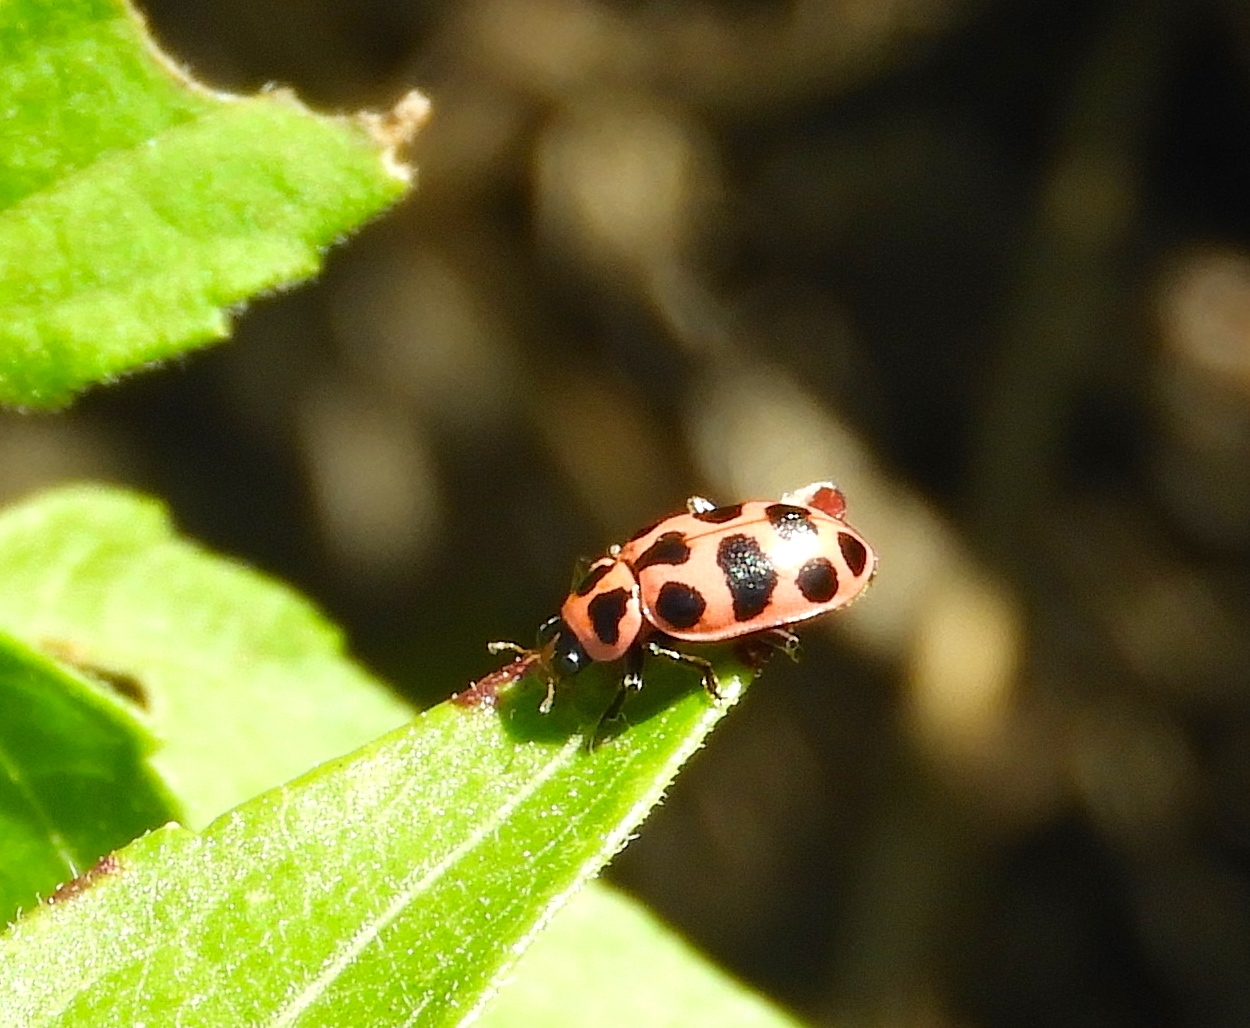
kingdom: Animalia
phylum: Arthropoda
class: Insecta
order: Coleoptera
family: Coccinellidae
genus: Coleomegilla
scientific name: Coleomegilla maculata
